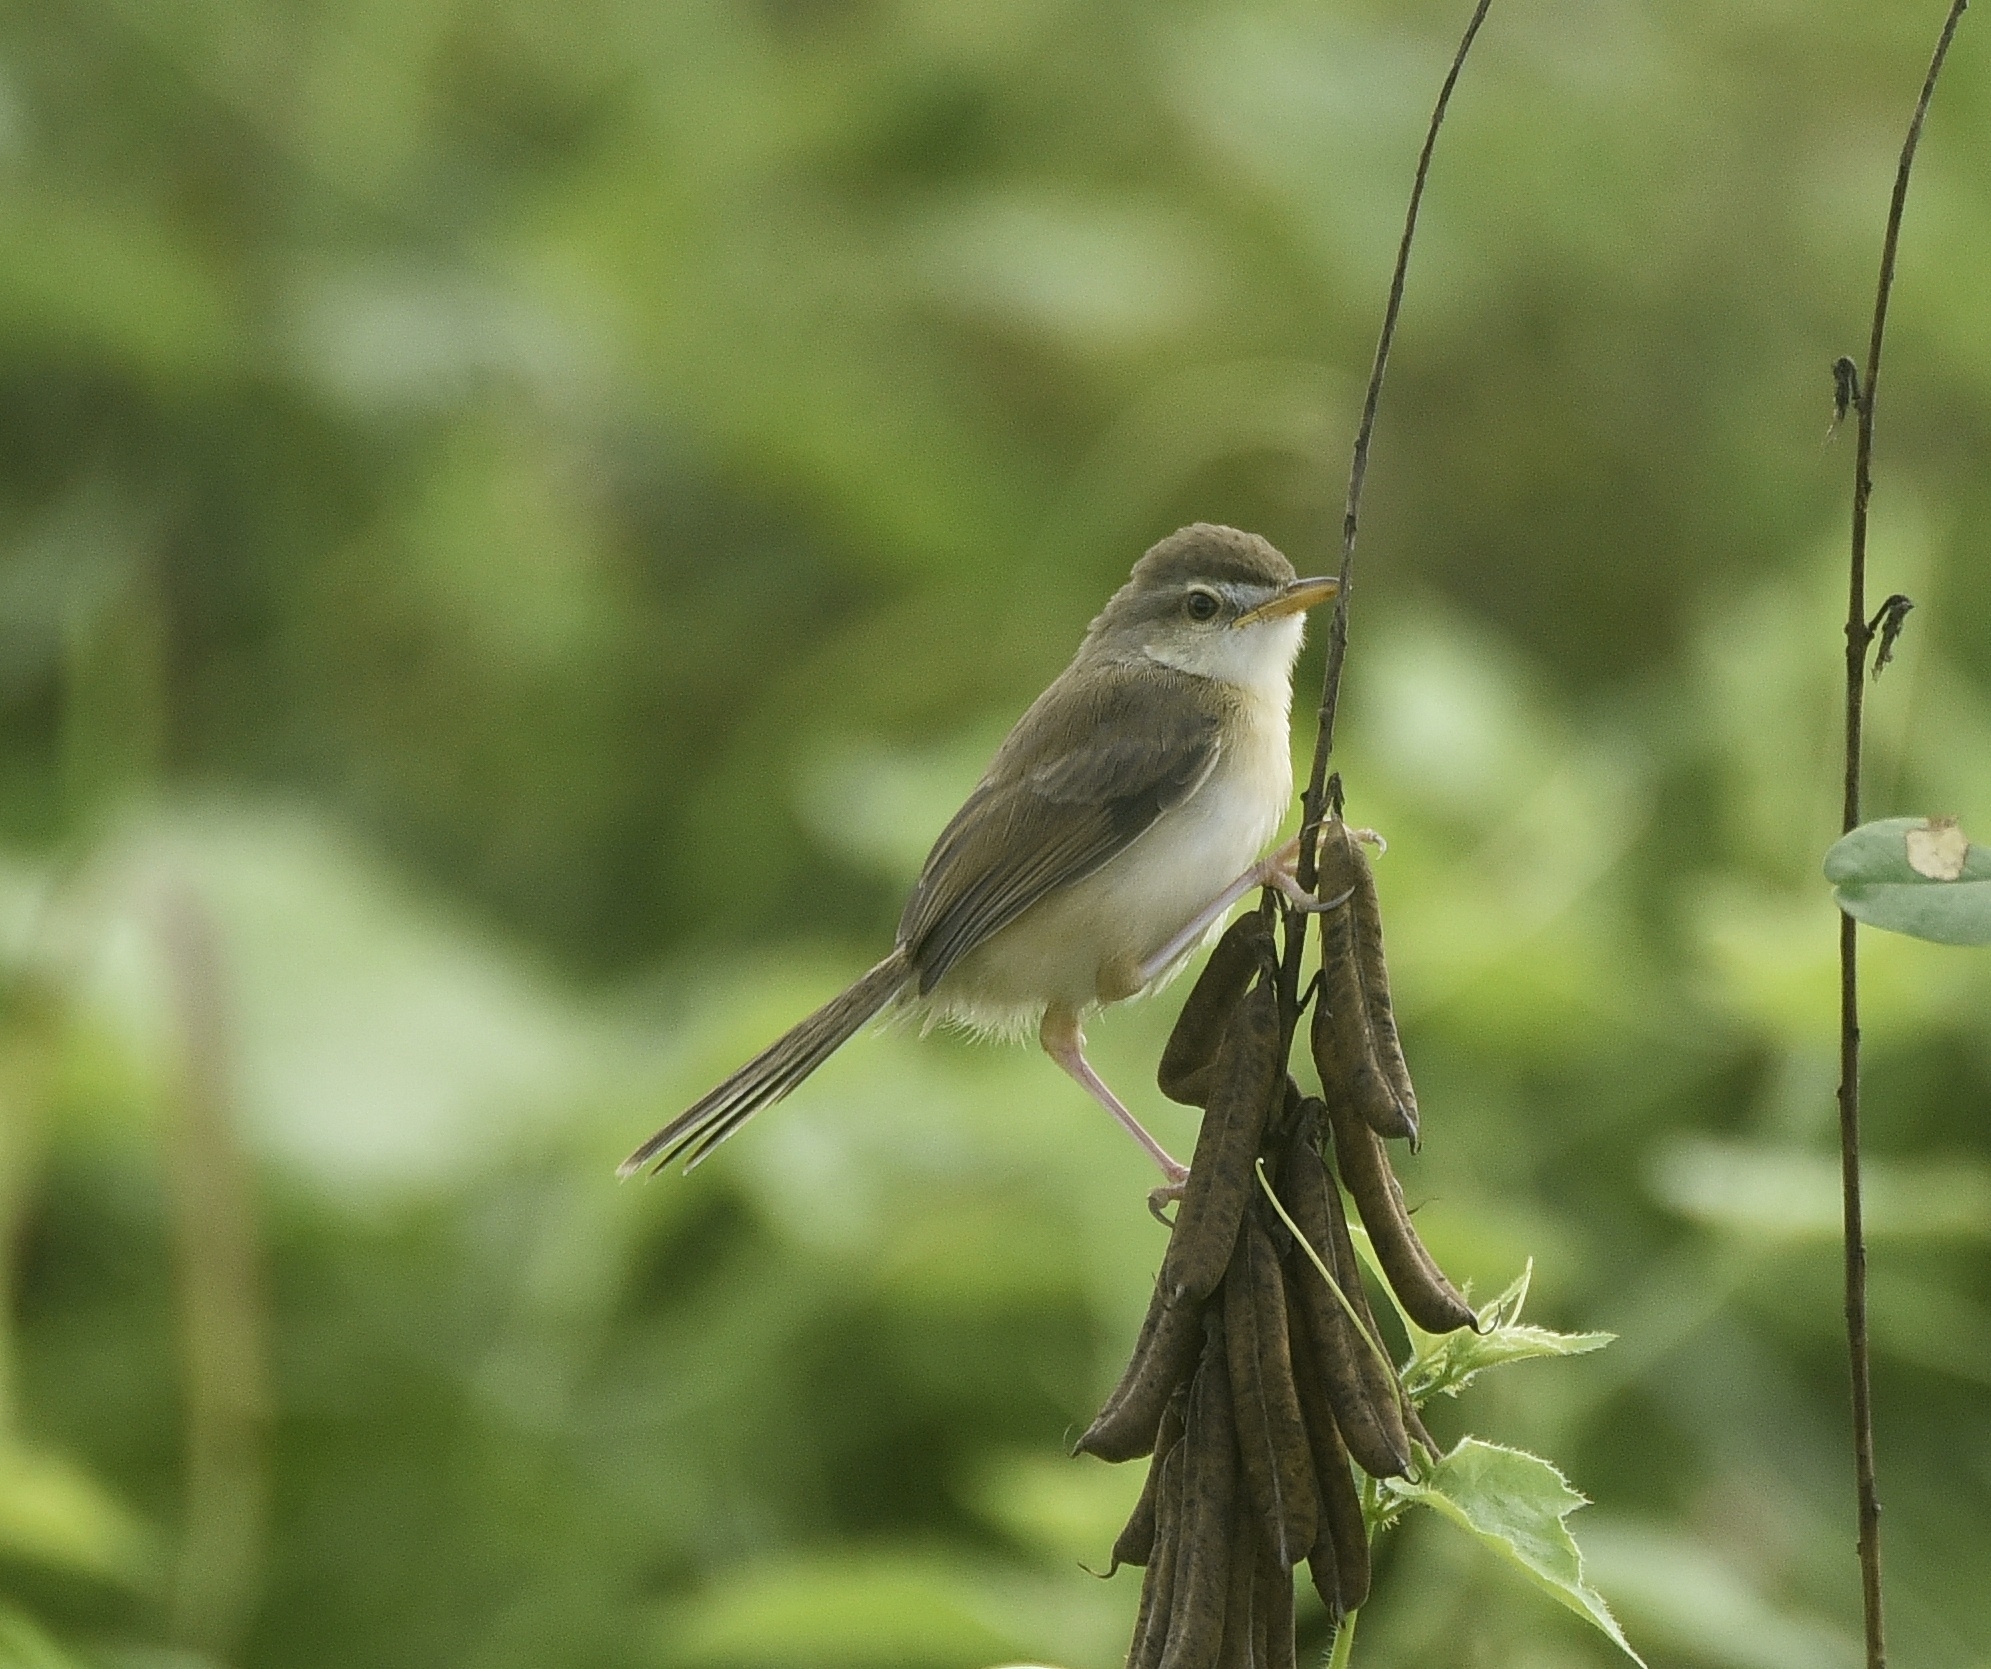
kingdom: Animalia
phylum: Chordata
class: Aves
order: Passeriformes
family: Cisticolidae
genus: Prinia
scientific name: Prinia inornata
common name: Plain prinia
